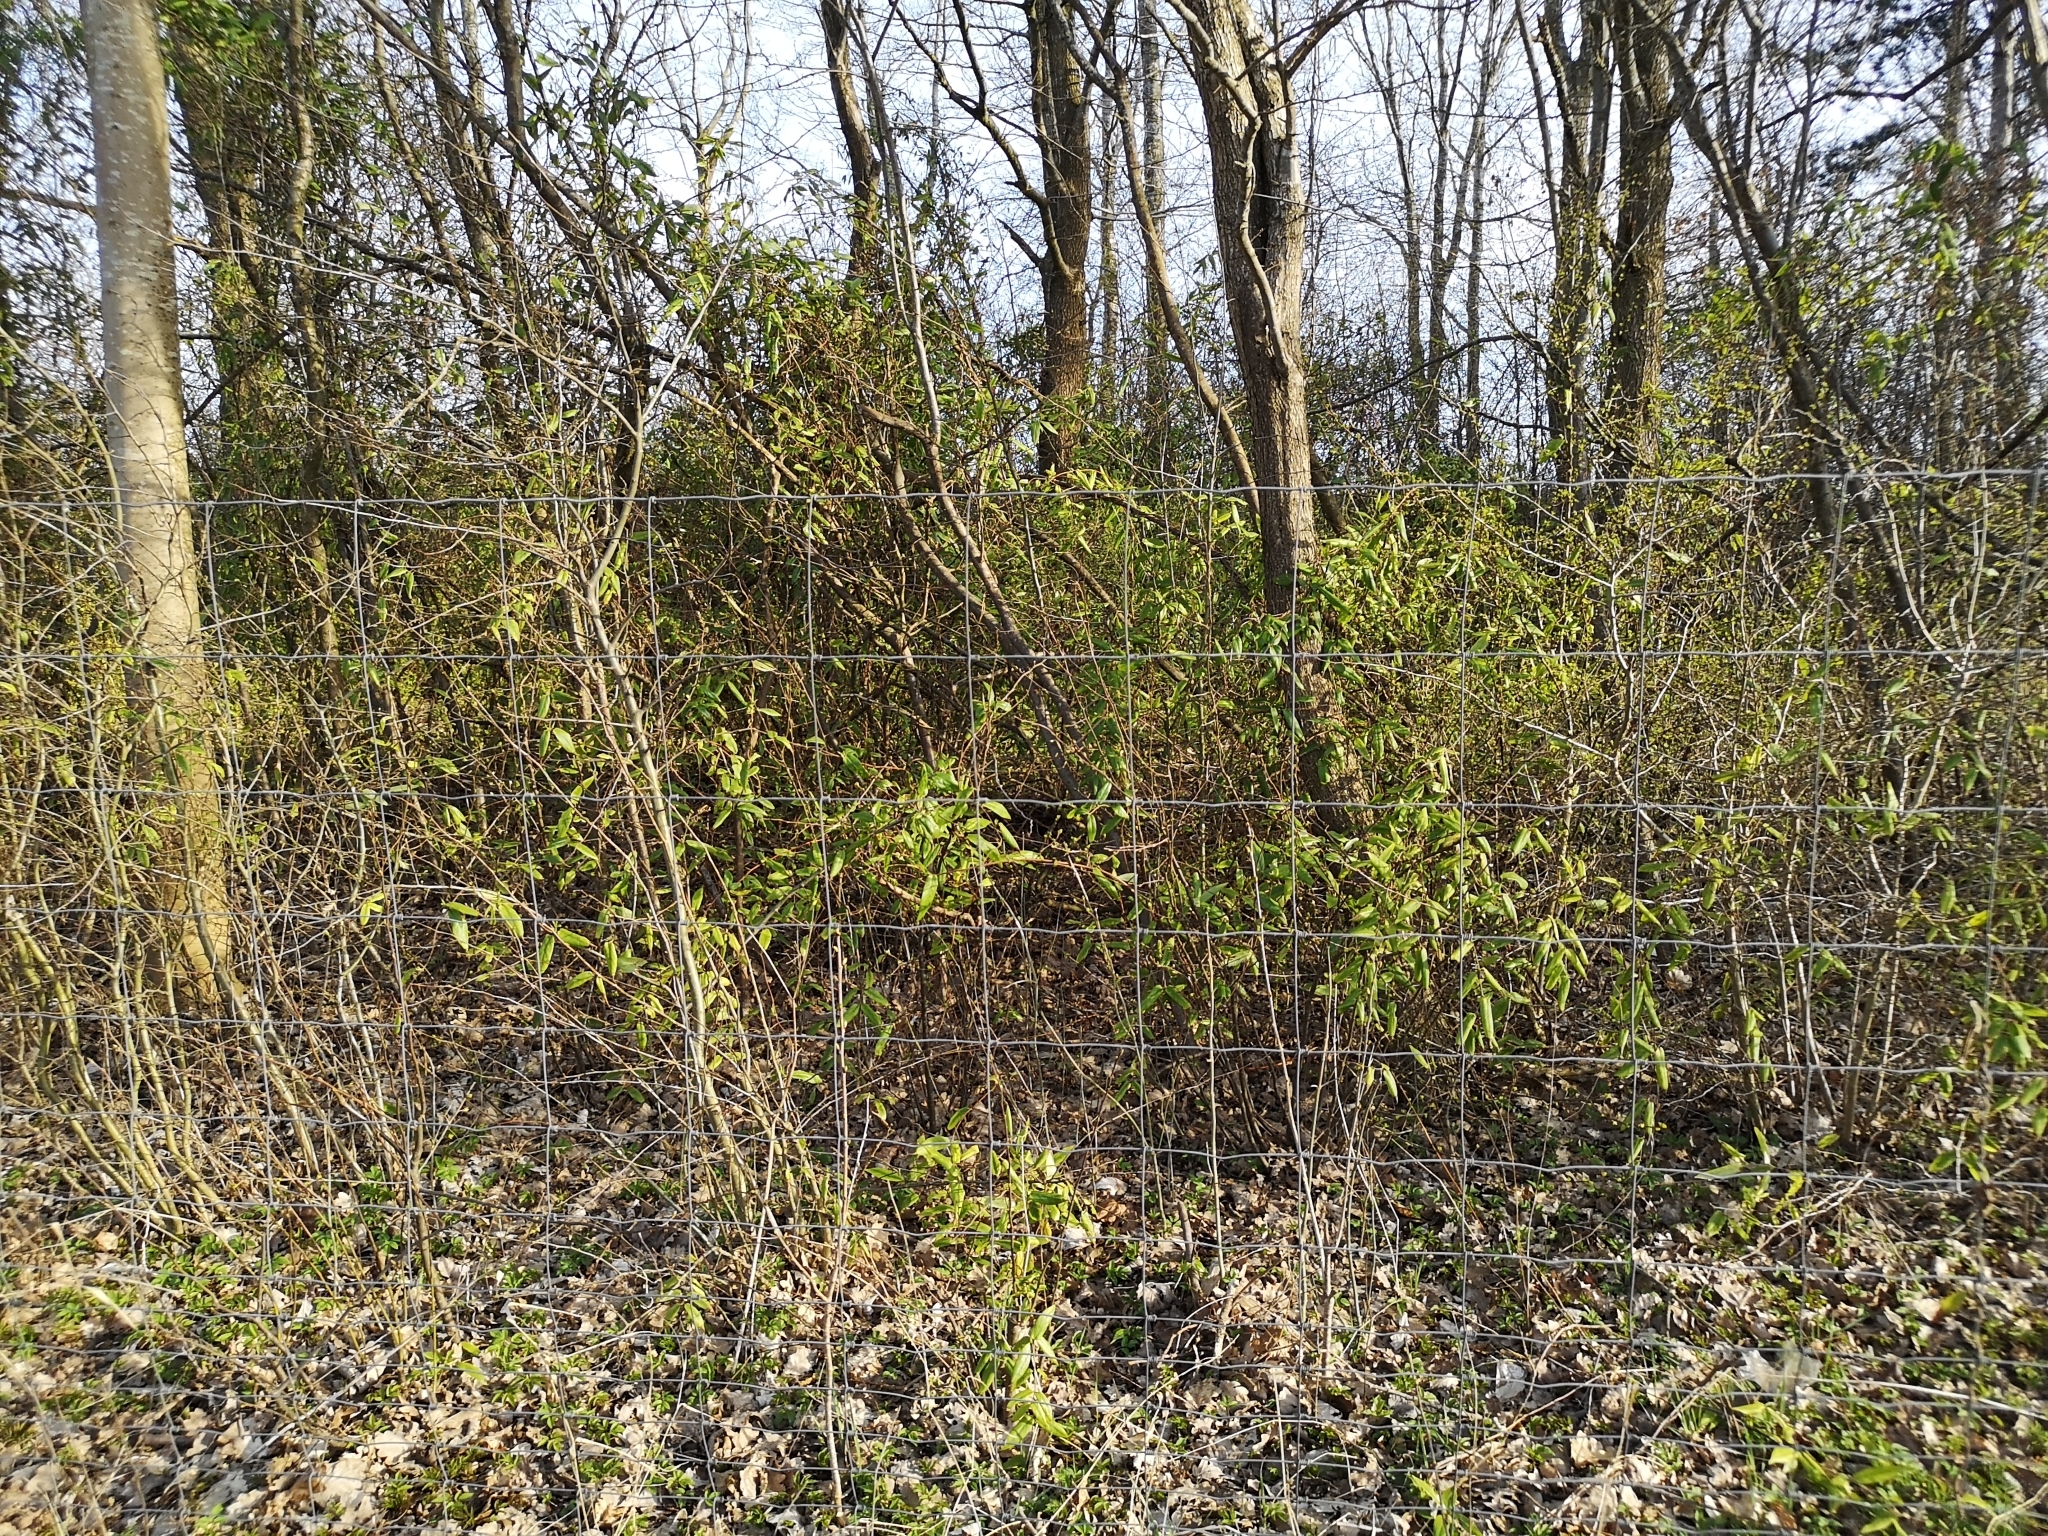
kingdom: Plantae
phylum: Tracheophyta
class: Magnoliopsida
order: Dipsacales
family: Caprifoliaceae
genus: Lonicera
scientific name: Lonicera acuminata
